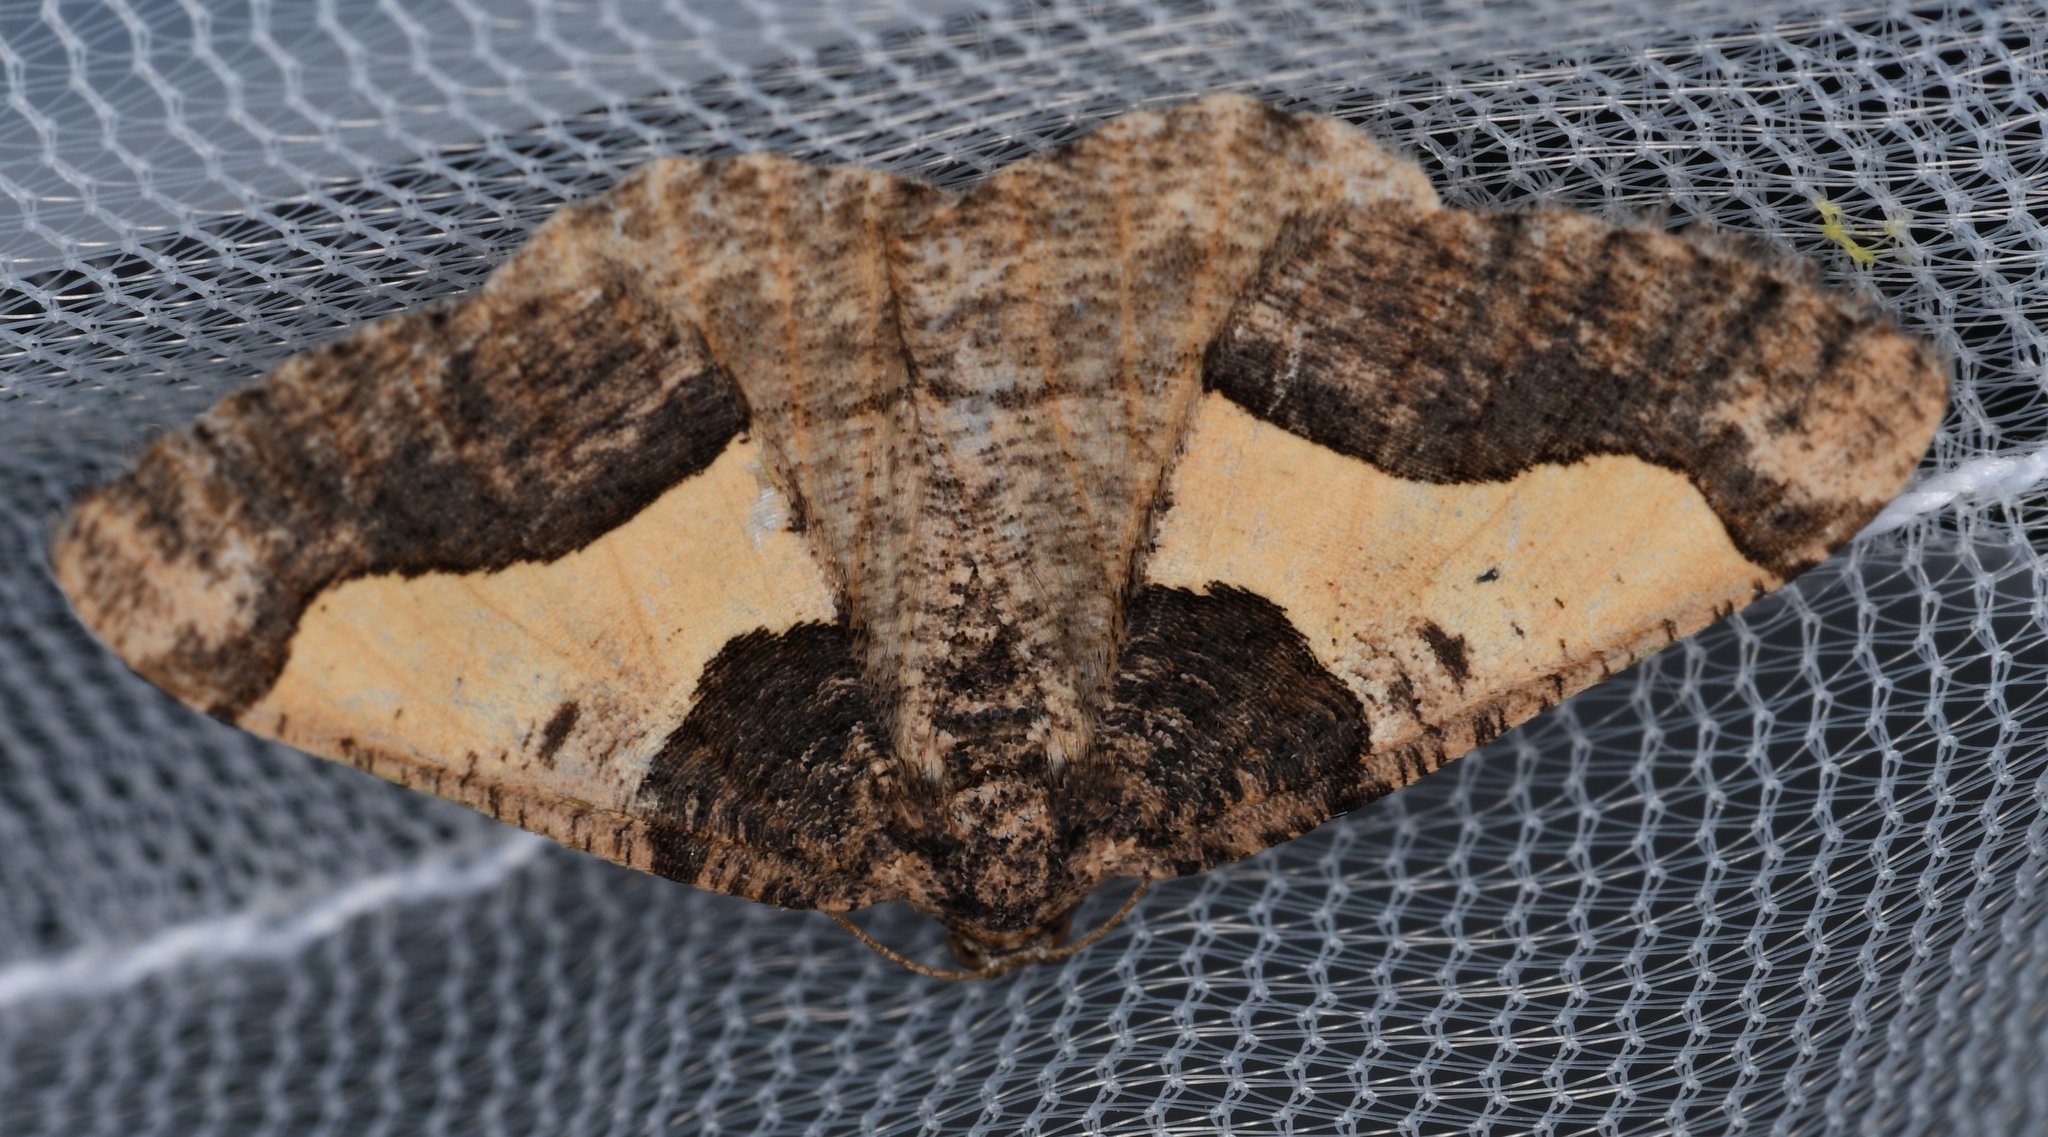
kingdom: Animalia
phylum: Arthropoda
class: Insecta
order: Lepidoptera
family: Geometridae
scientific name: Geometridae
